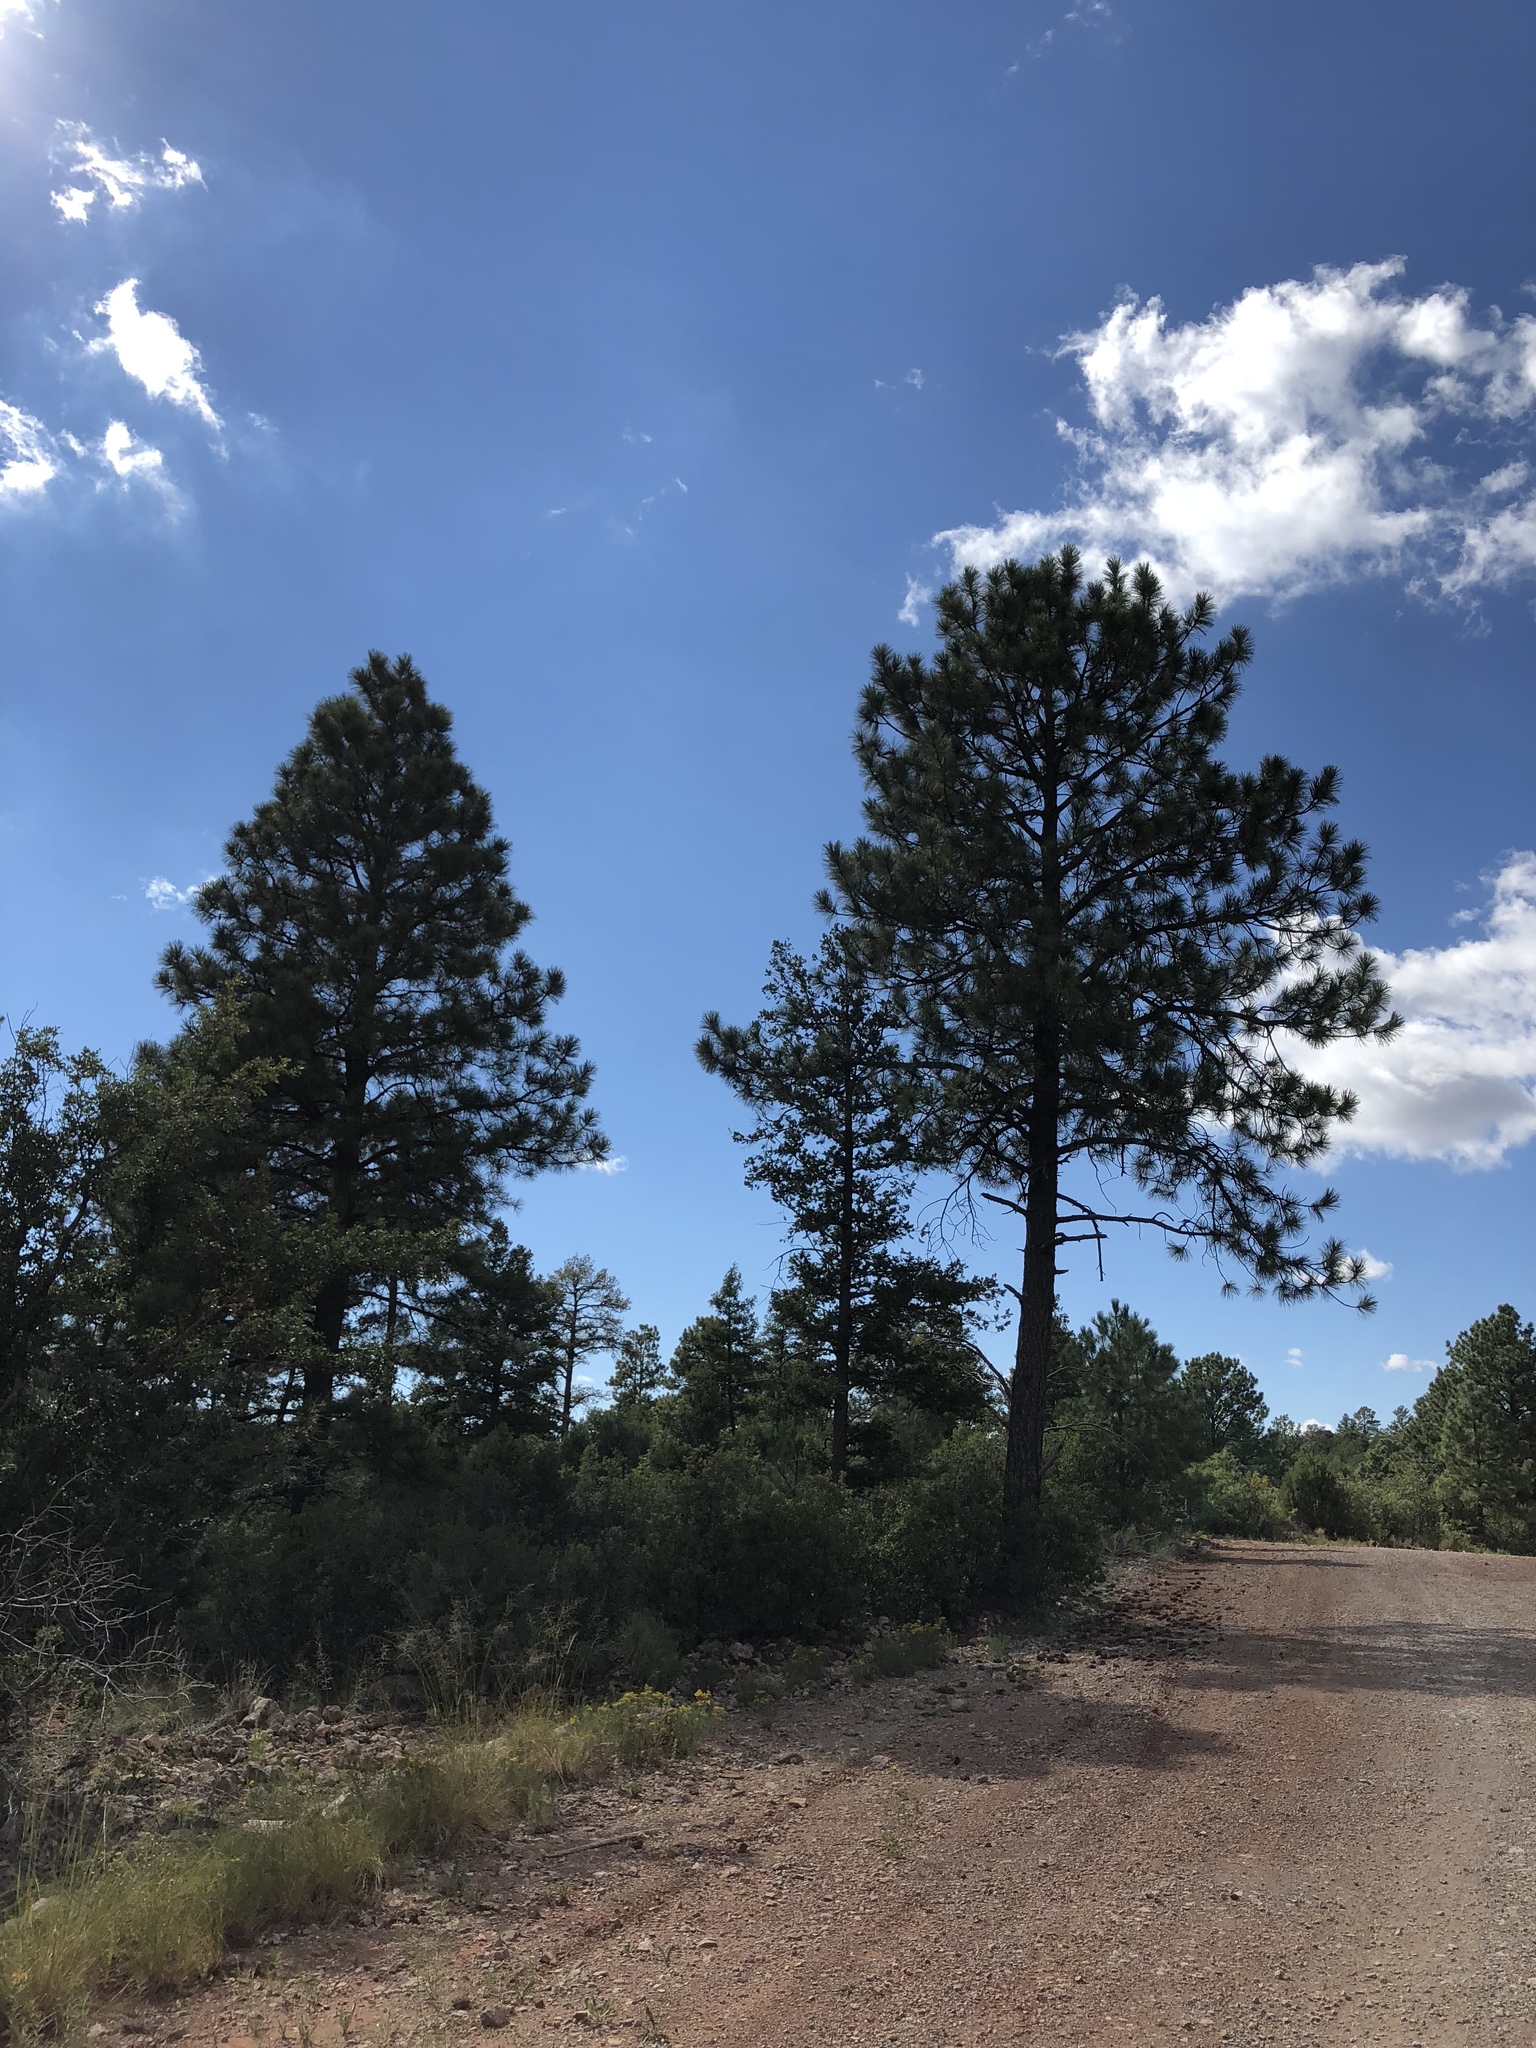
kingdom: Plantae
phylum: Tracheophyta
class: Pinopsida
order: Pinales
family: Pinaceae
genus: Pinus
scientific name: Pinus ponderosa
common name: Western yellow-pine
